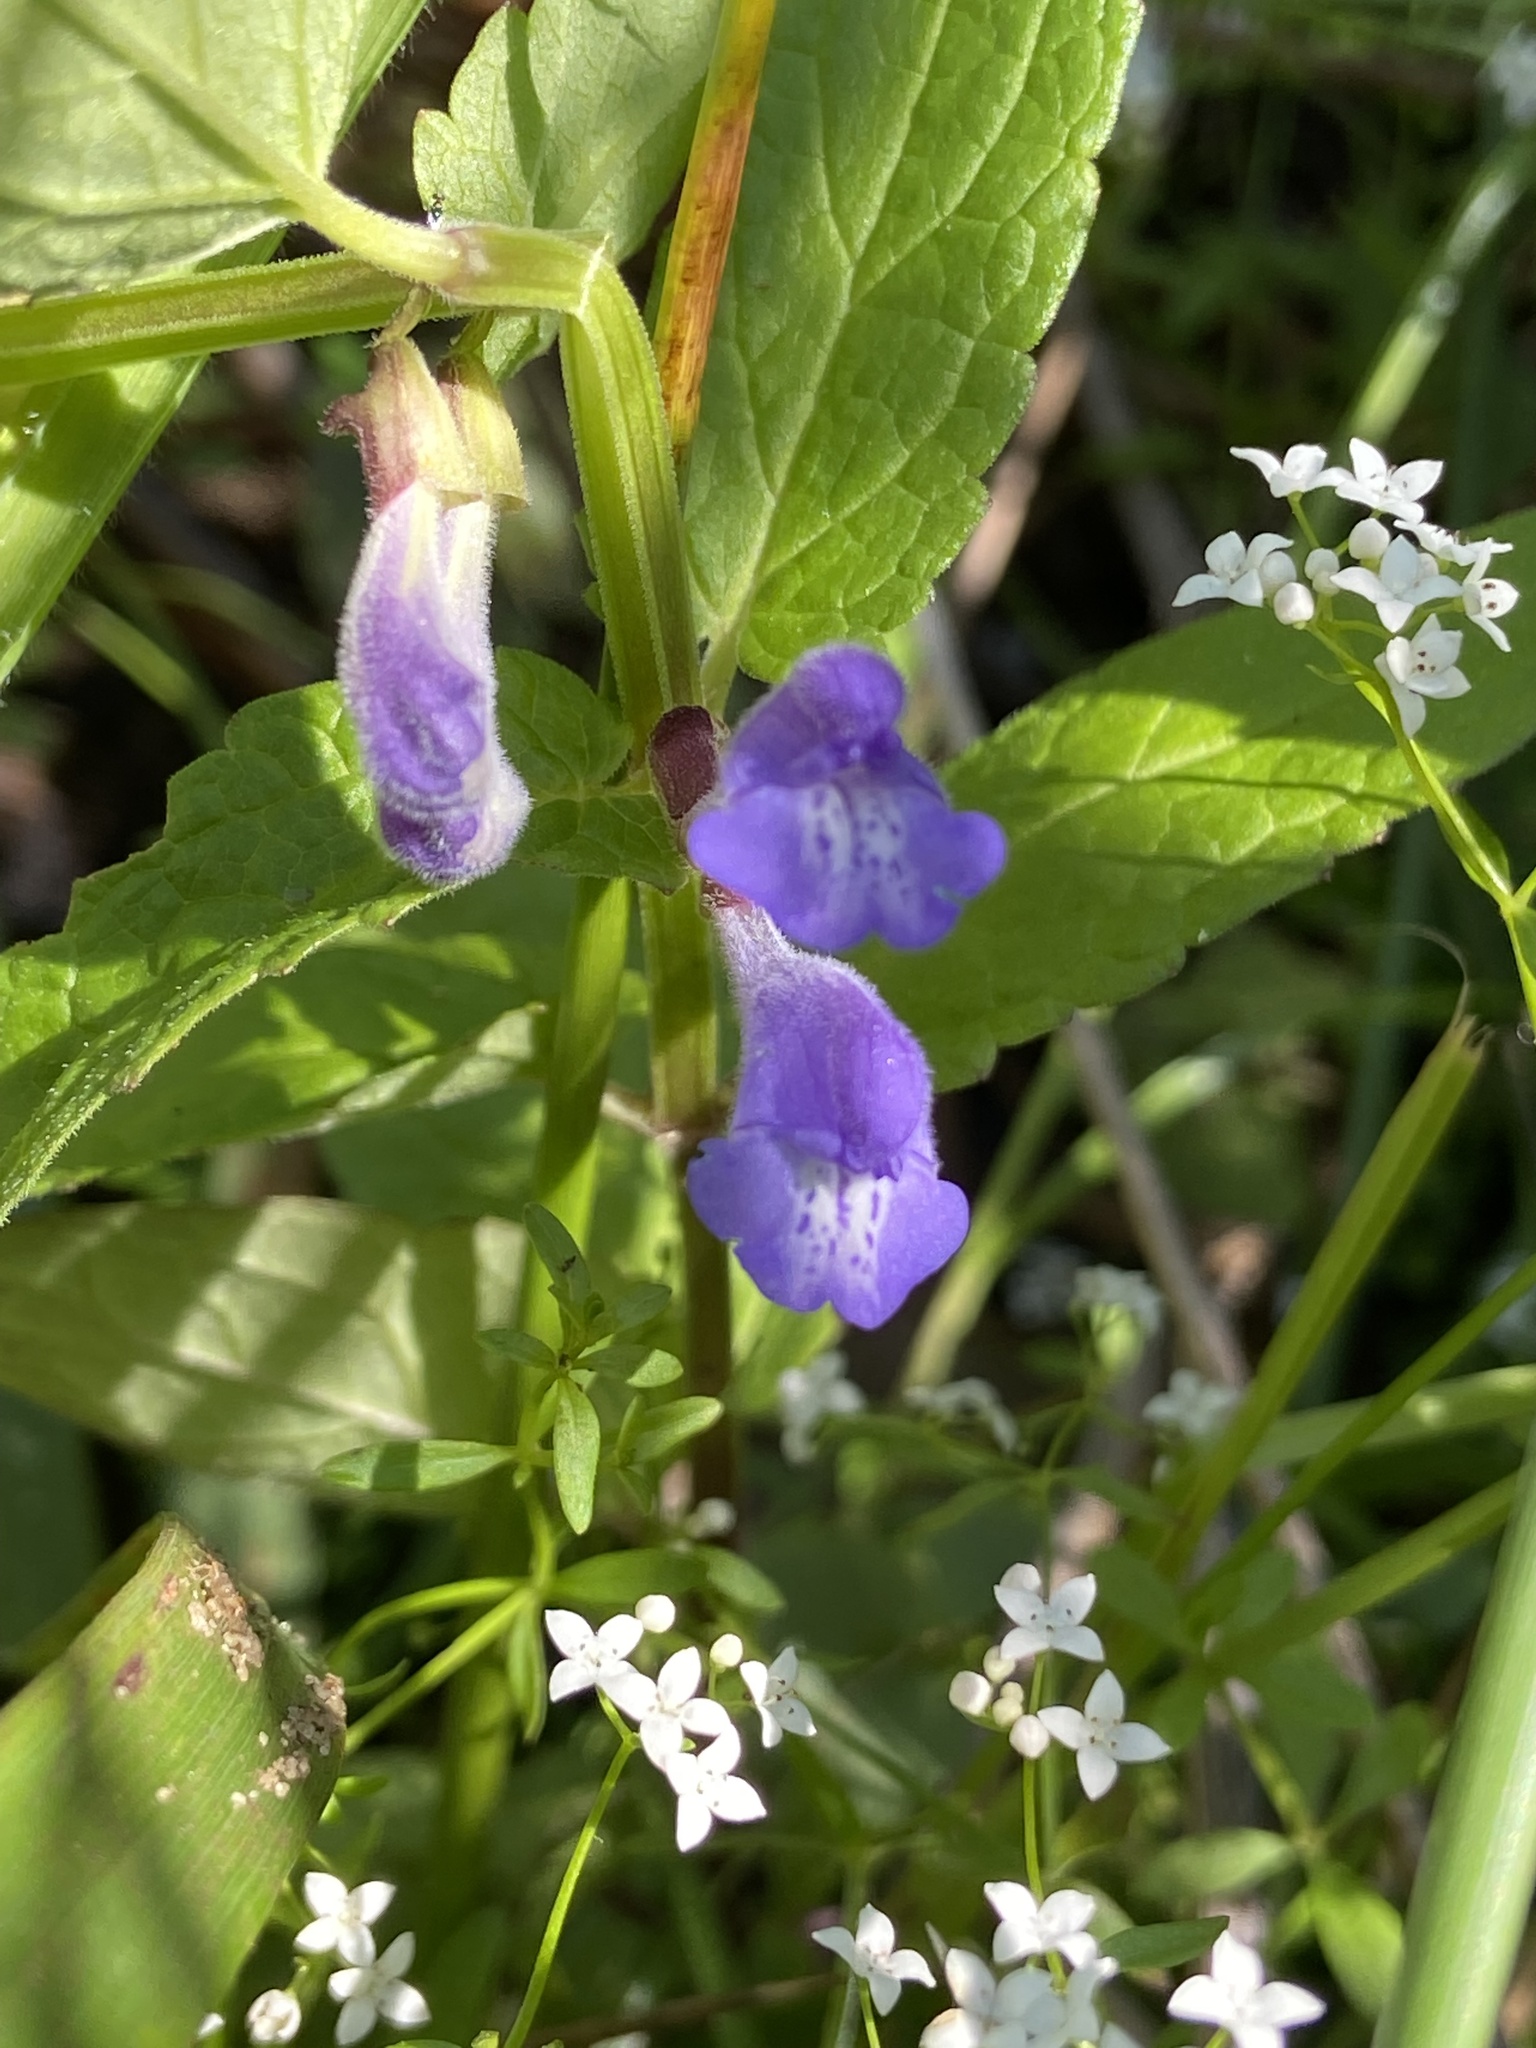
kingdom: Plantae
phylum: Tracheophyta
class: Magnoliopsida
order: Lamiales
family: Lamiaceae
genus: Scutellaria
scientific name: Scutellaria galericulata
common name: Skullcap
